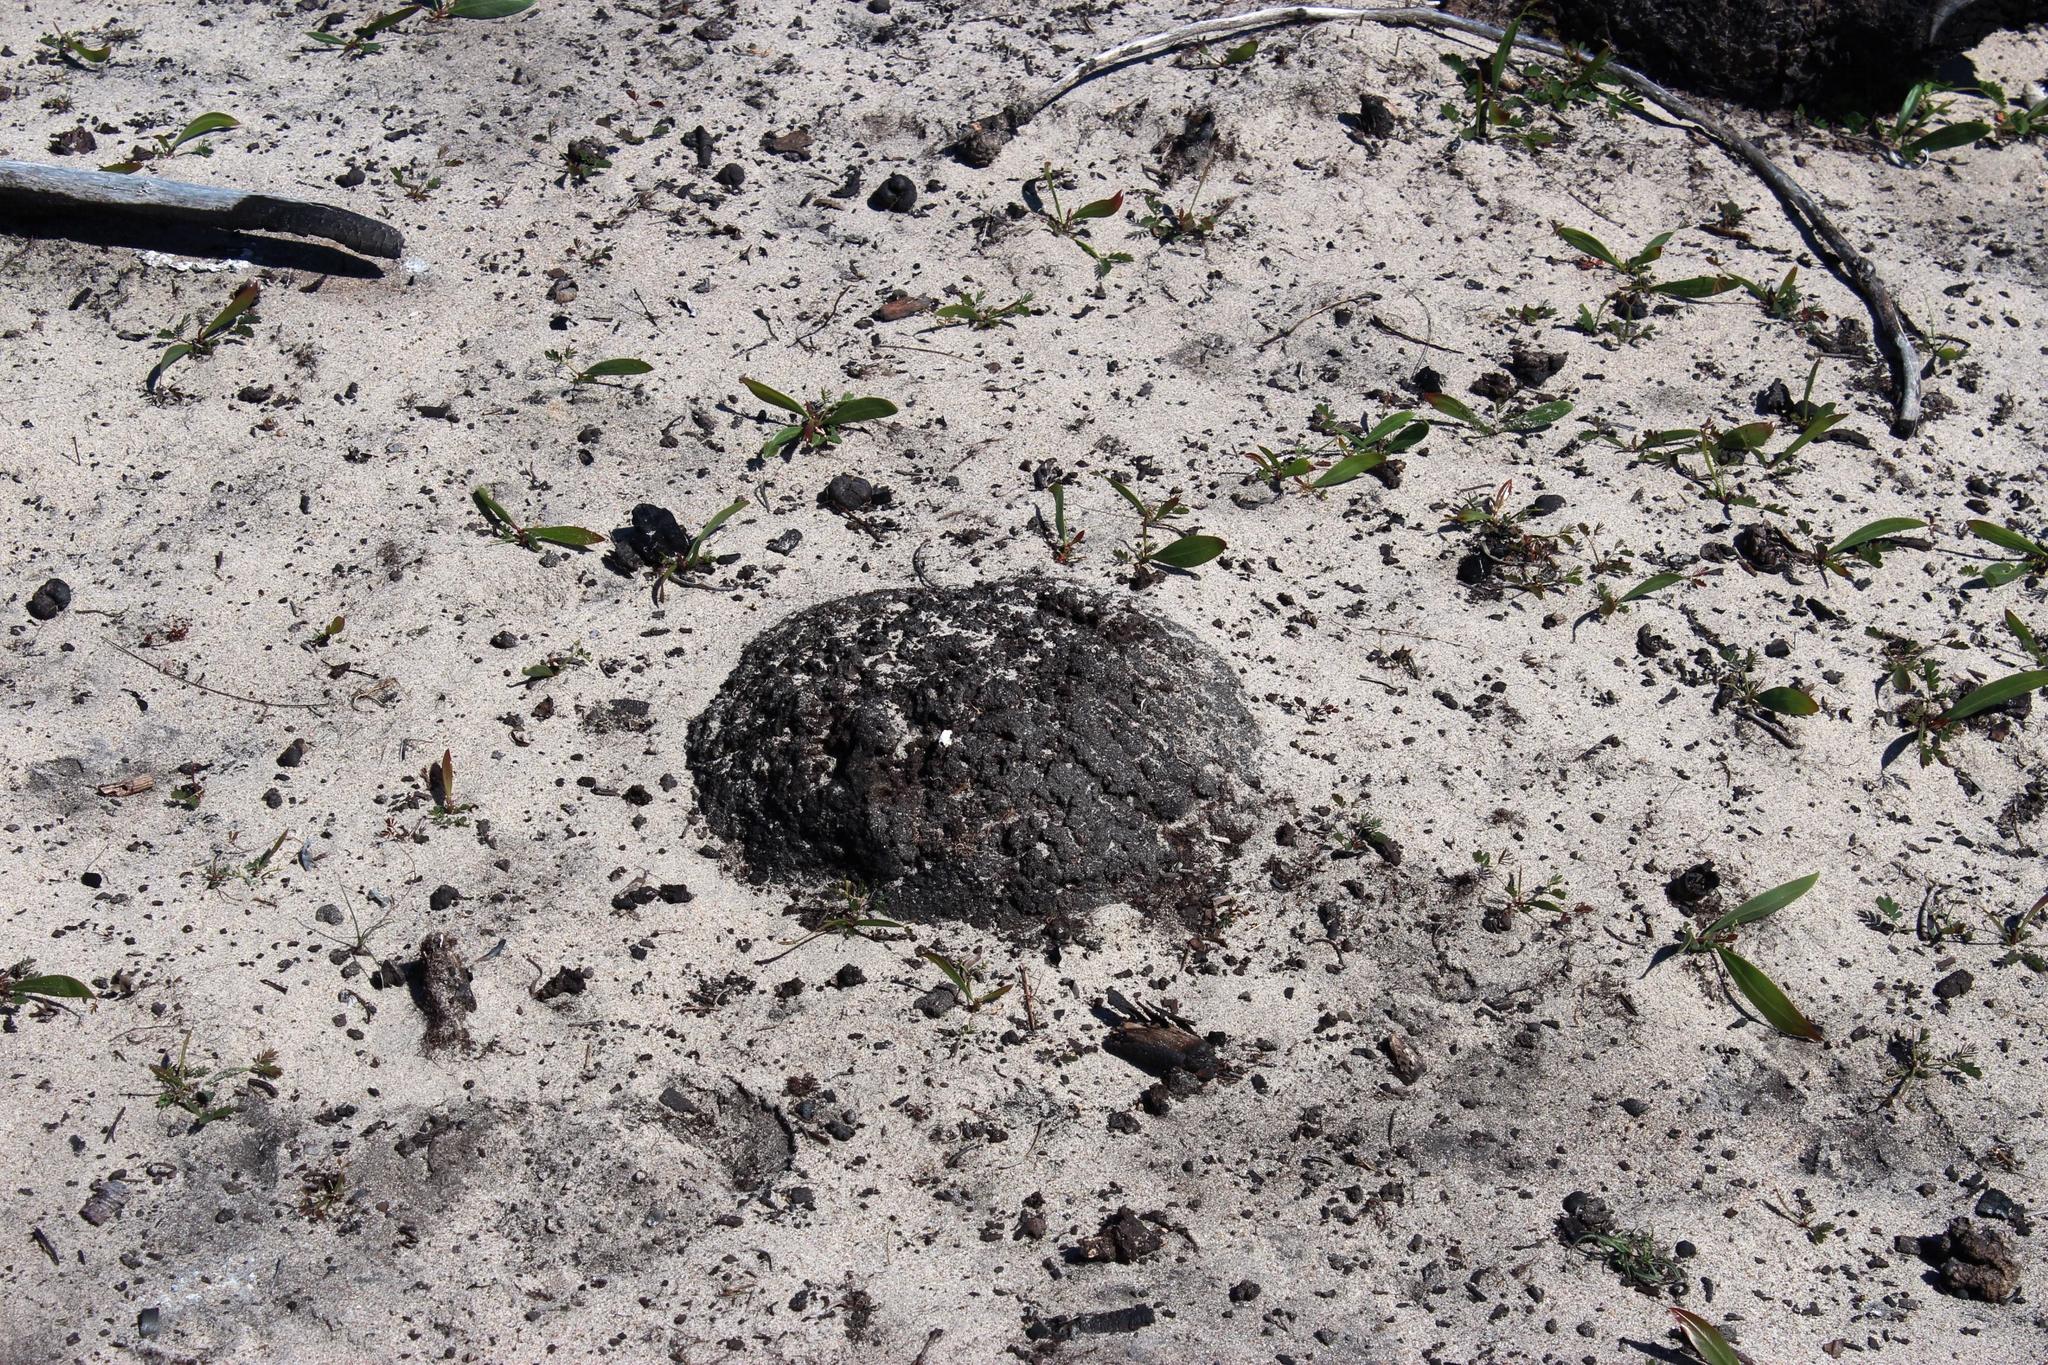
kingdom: Animalia
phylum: Arthropoda
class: Insecta
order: Blattodea
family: Termitidae
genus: Amitermes
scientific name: Amitermes hastatus
